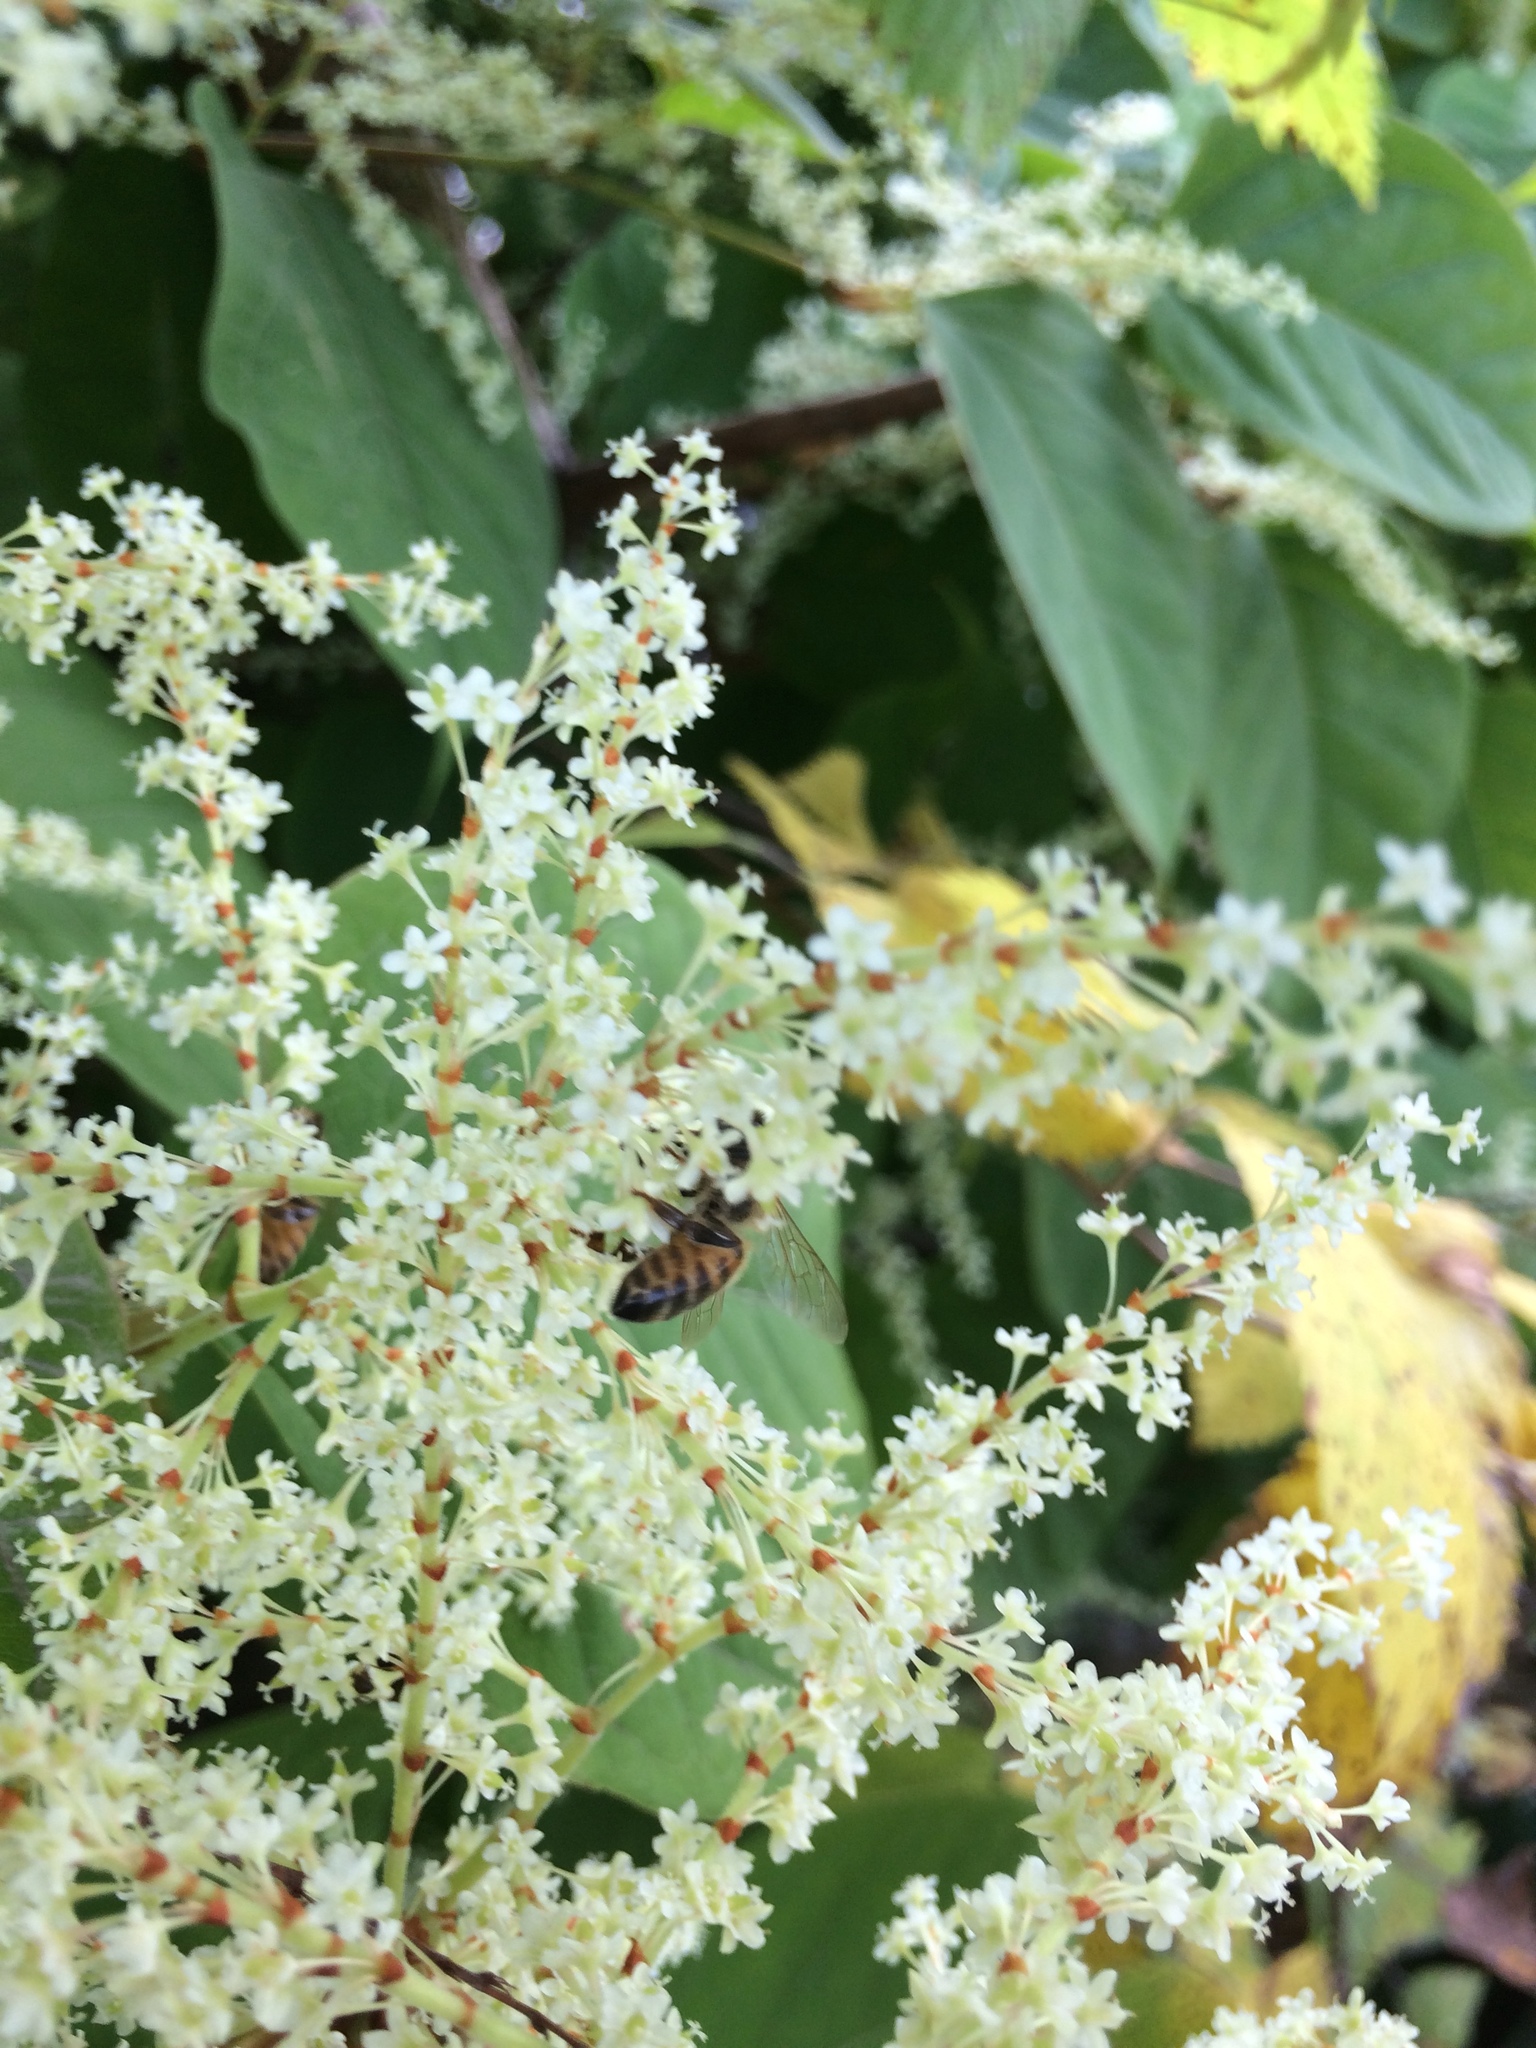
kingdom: Animalia
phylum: Arthropoda
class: Insecta
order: Hymenoptera
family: Apidae
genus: Apis
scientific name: Apis mellifera
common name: Honey bee
